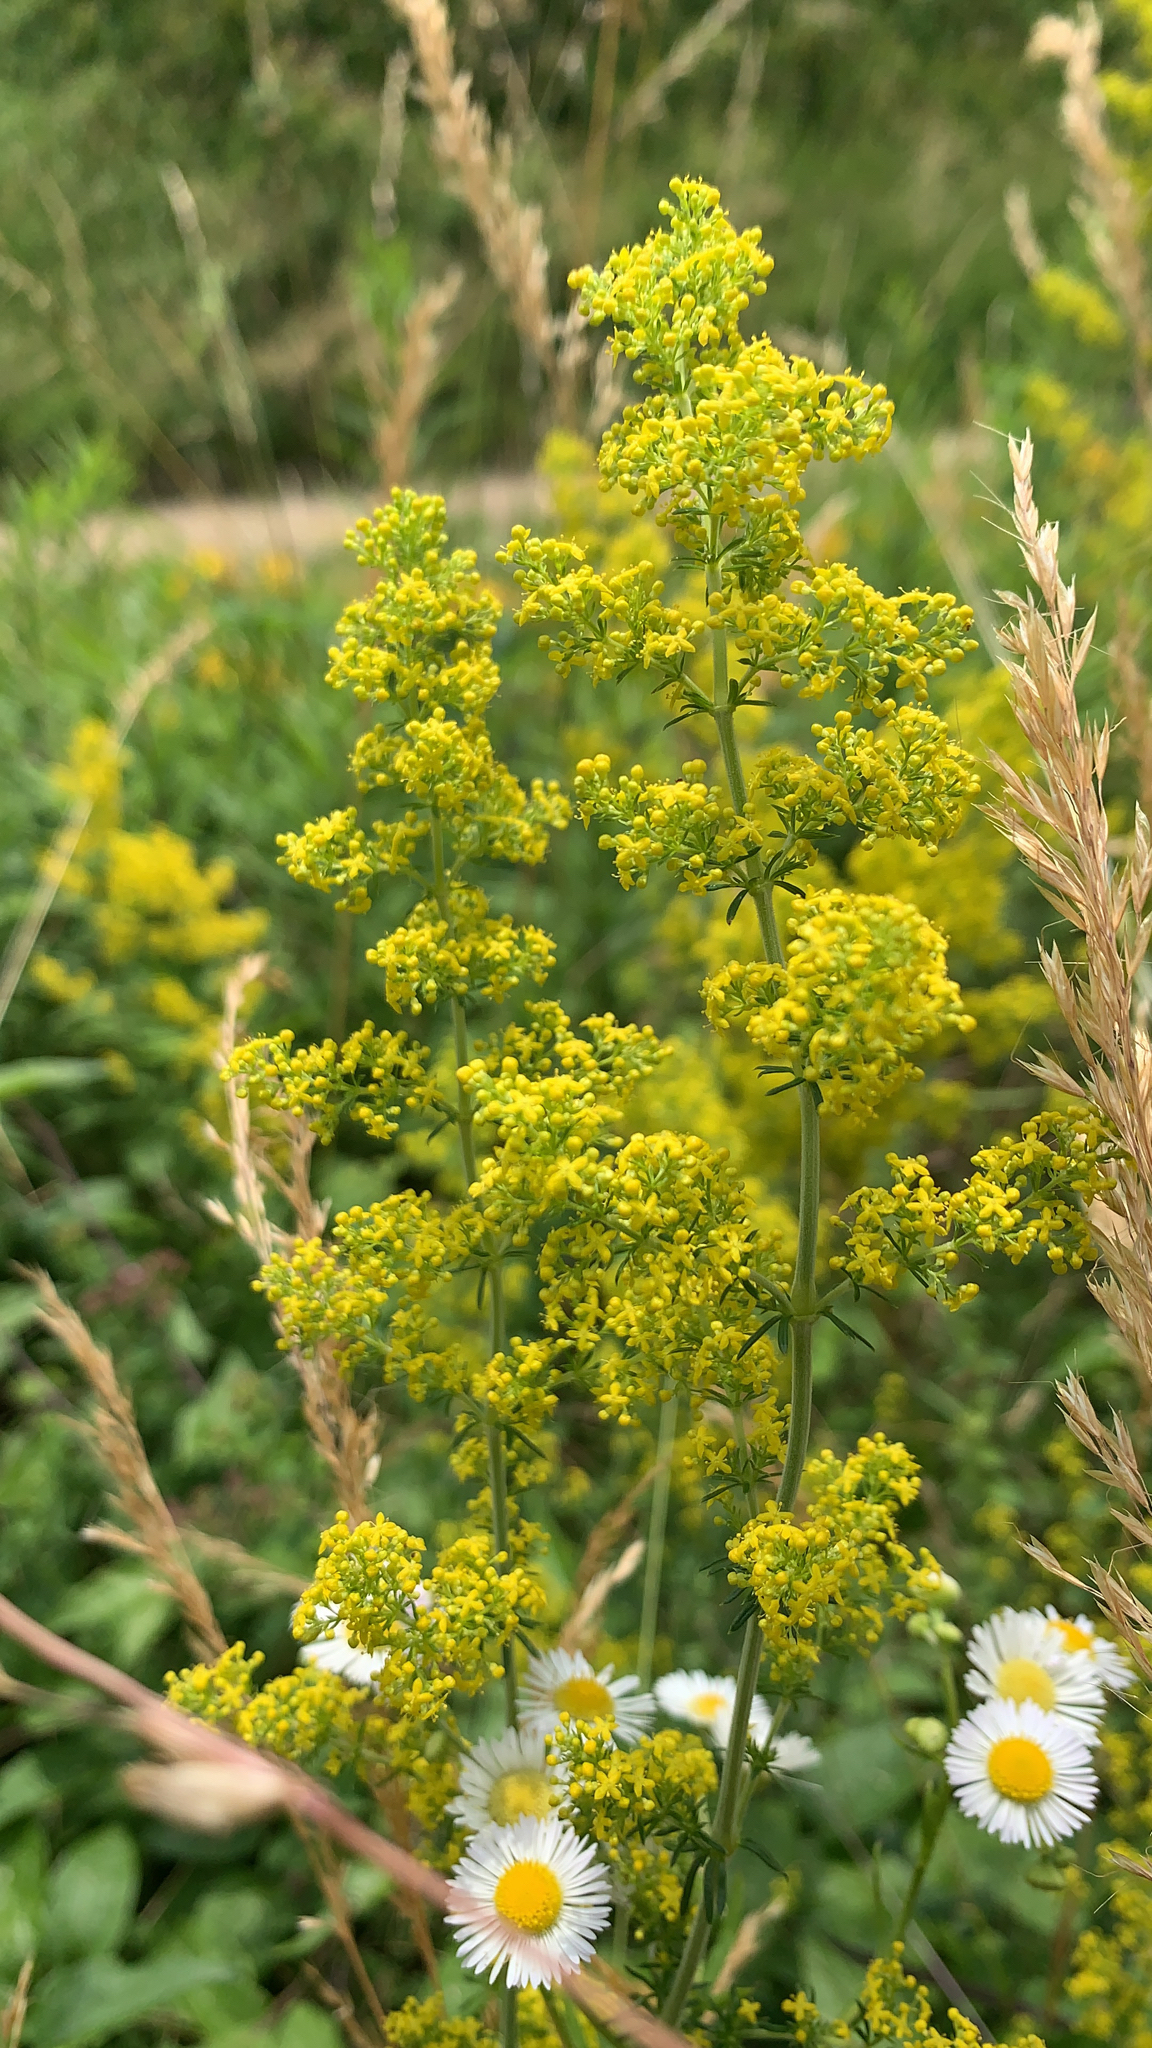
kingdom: Plantae
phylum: Tracheophyta
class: Magnoliopsida
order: Gentianales
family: Rubiaceae
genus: Galium
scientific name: Galium verum
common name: Lady's bedstraw
